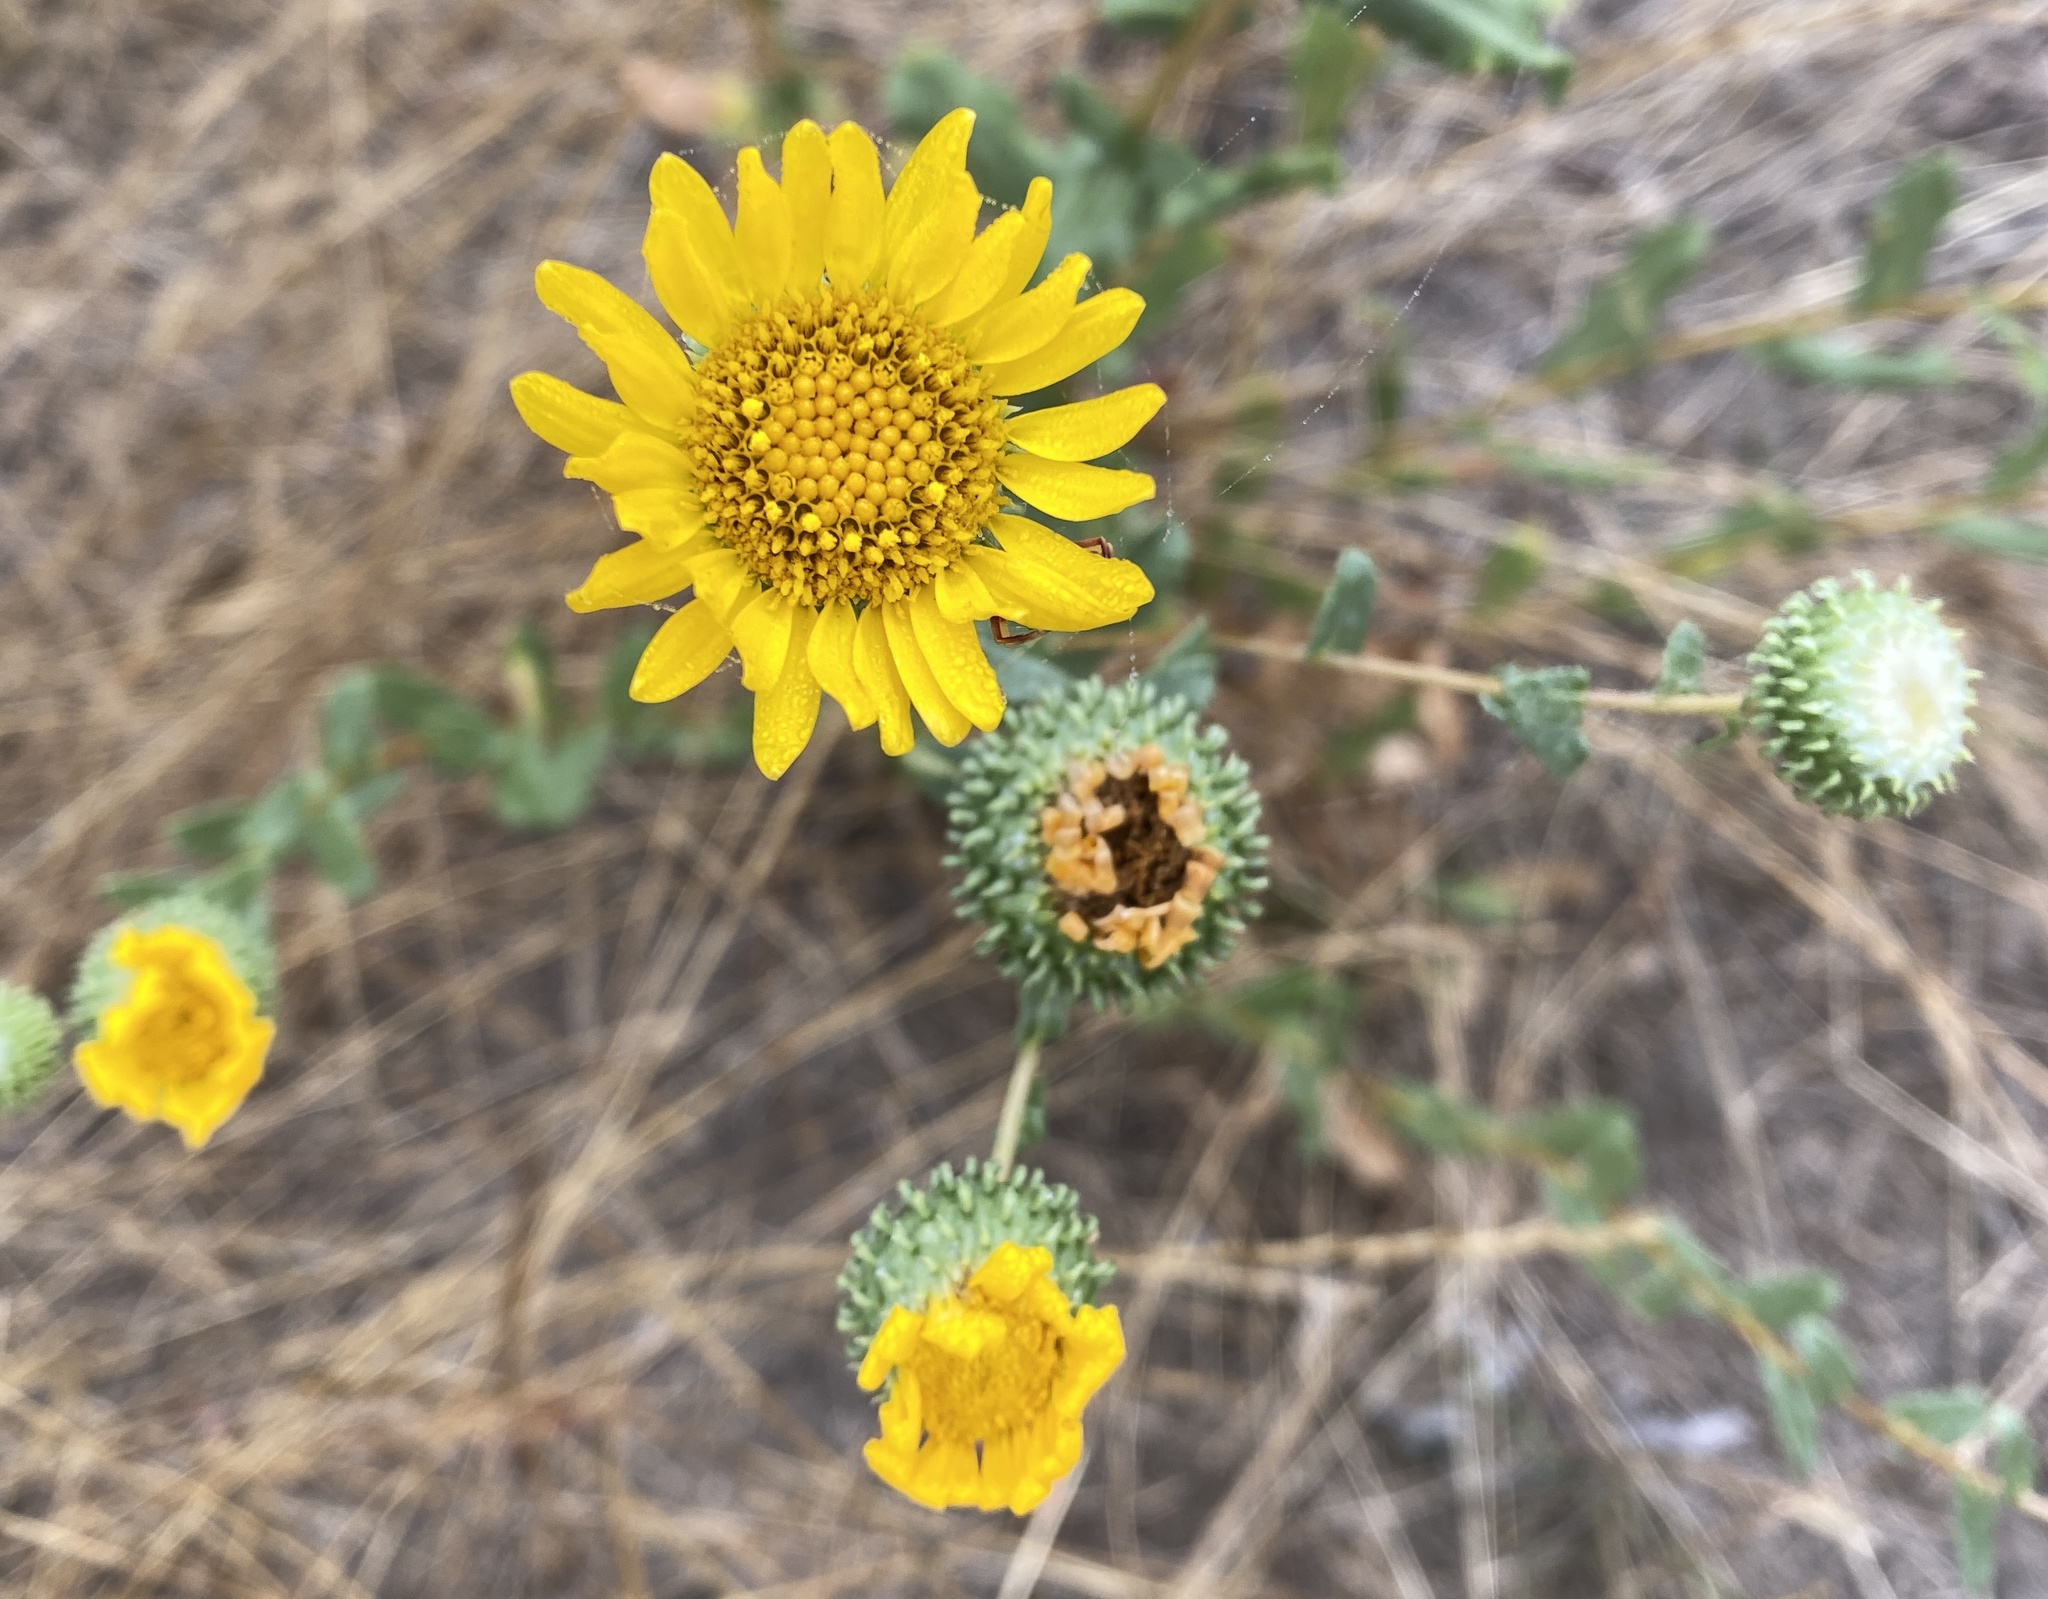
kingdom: Plantae
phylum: Tracheophyta
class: Magnoliopsida
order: Asterales
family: Asteraceae
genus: Grindelia
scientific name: Grindelia hirsutula
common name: Hairy gumweed
